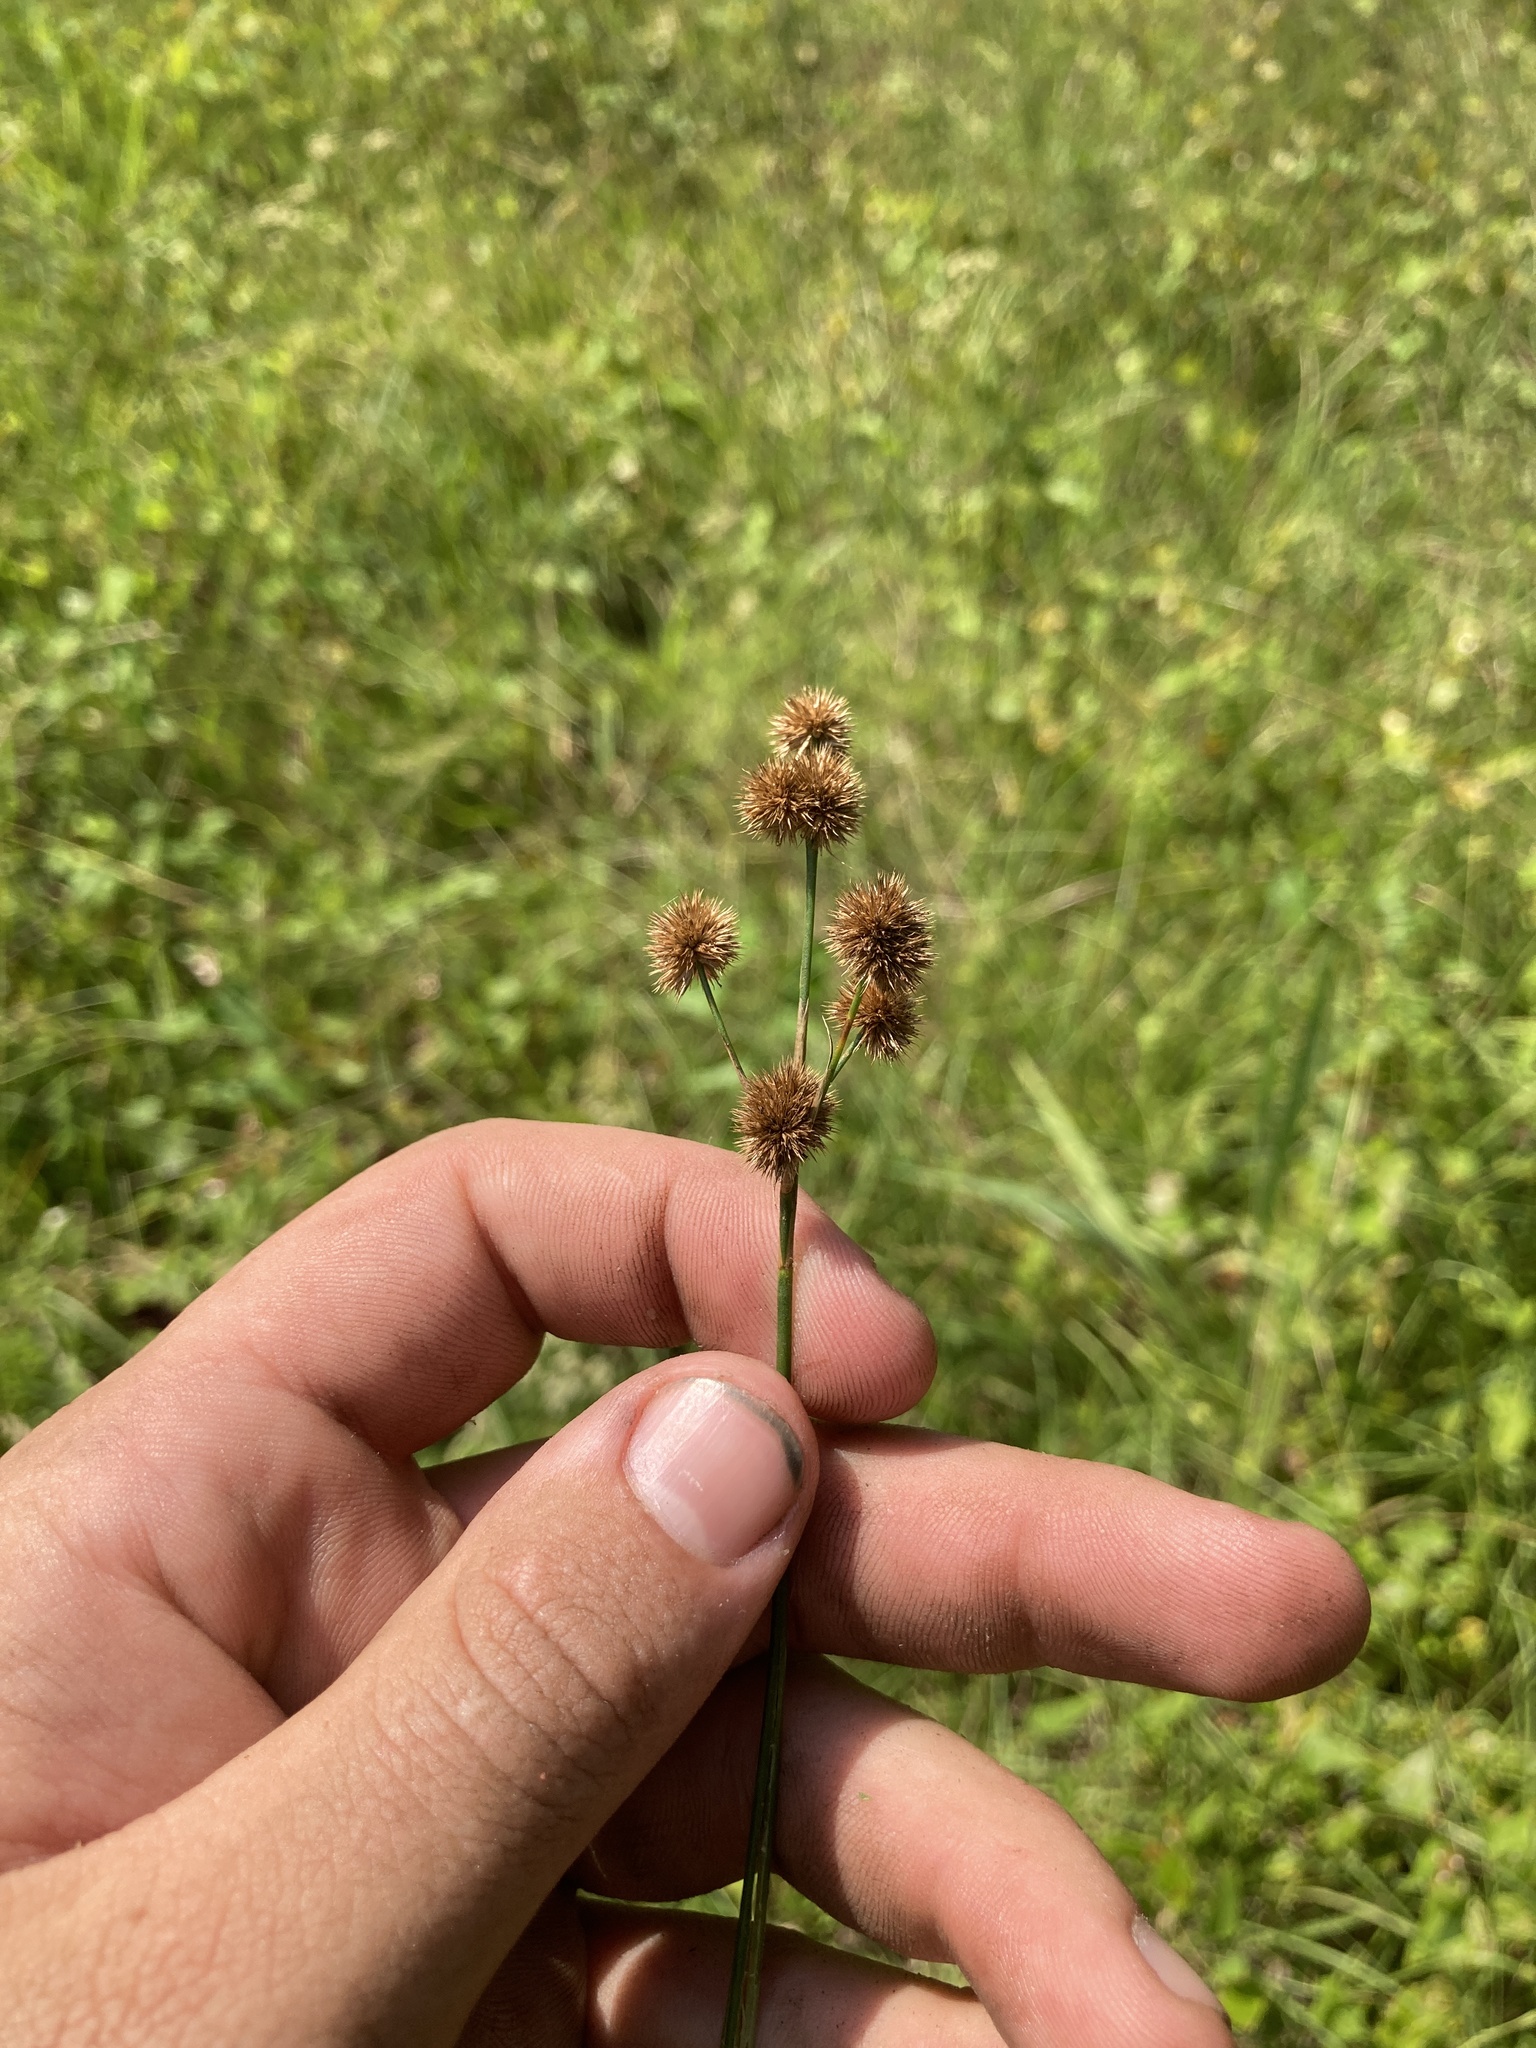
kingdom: Plantae
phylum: Tracheophyta
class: Liliopsida
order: Poales
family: Juncaceae
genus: Juncus
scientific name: Juncus acuminatus
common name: Knotty-leaved rush
